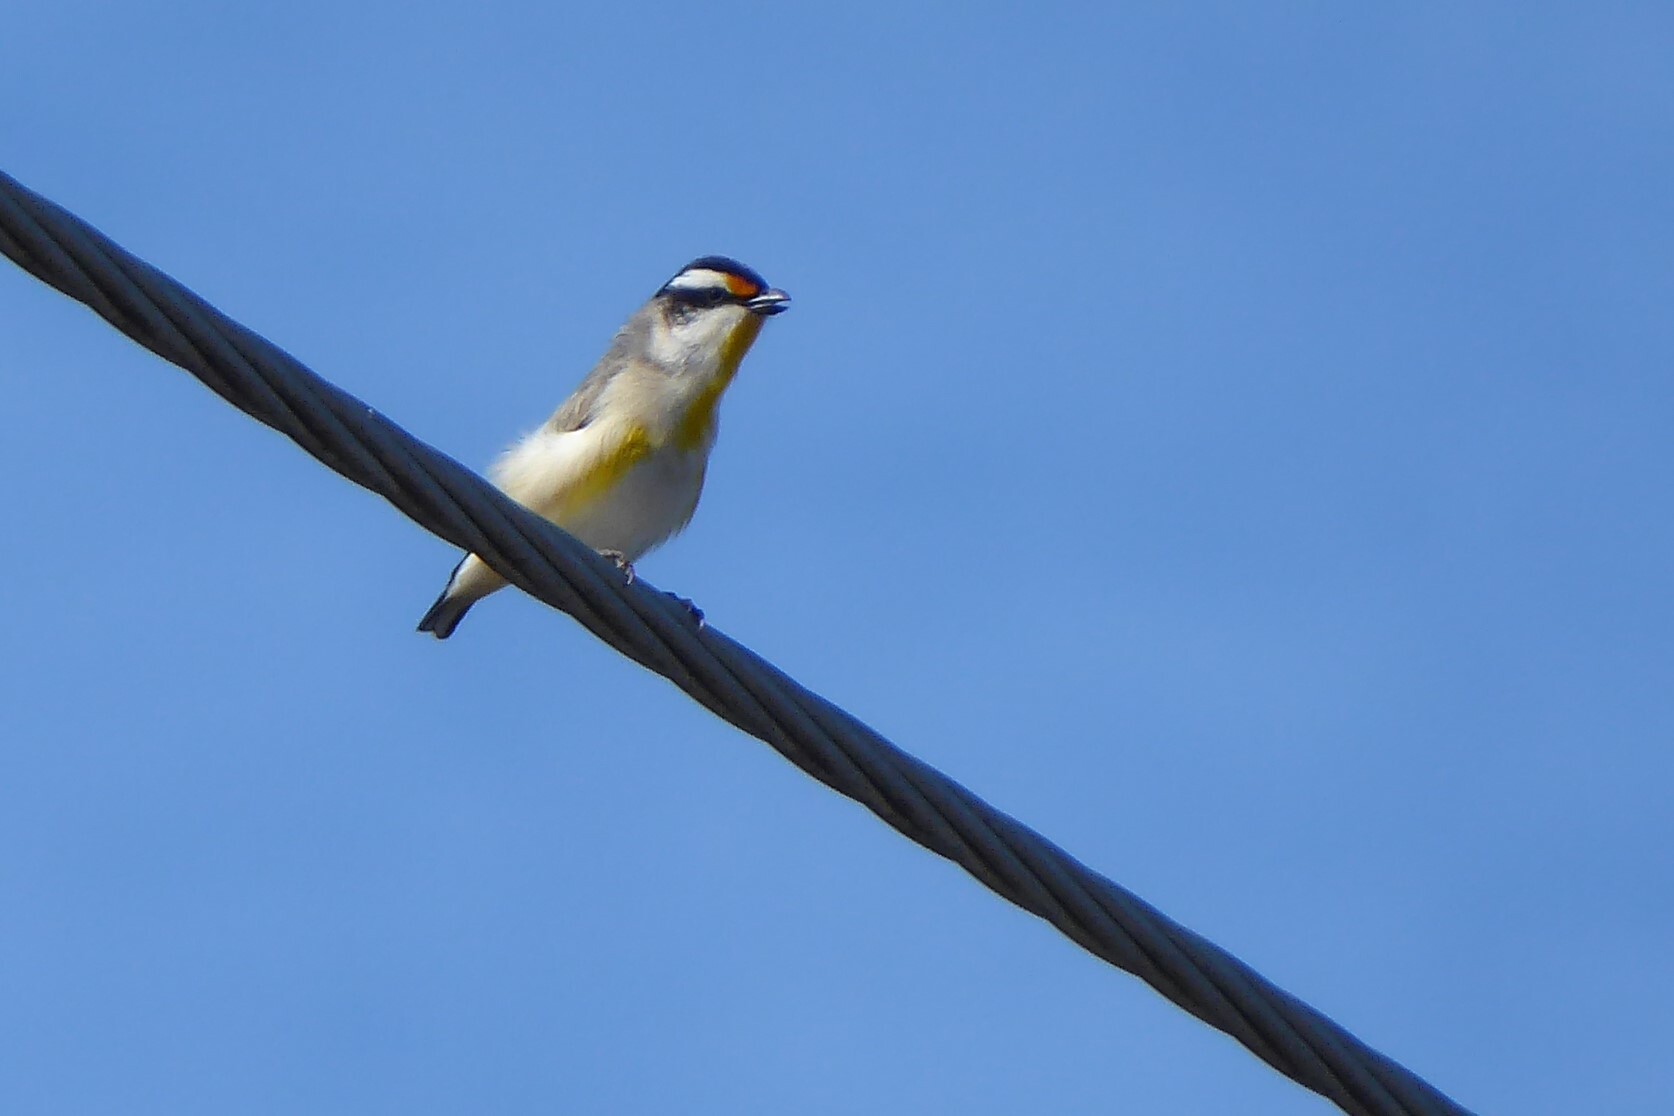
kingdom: Animalia
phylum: Chordata
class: Aves
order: Passeriformes
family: Pardalotidae
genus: Pardalotus
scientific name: Pardalotus striatus
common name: Striated pardalote
